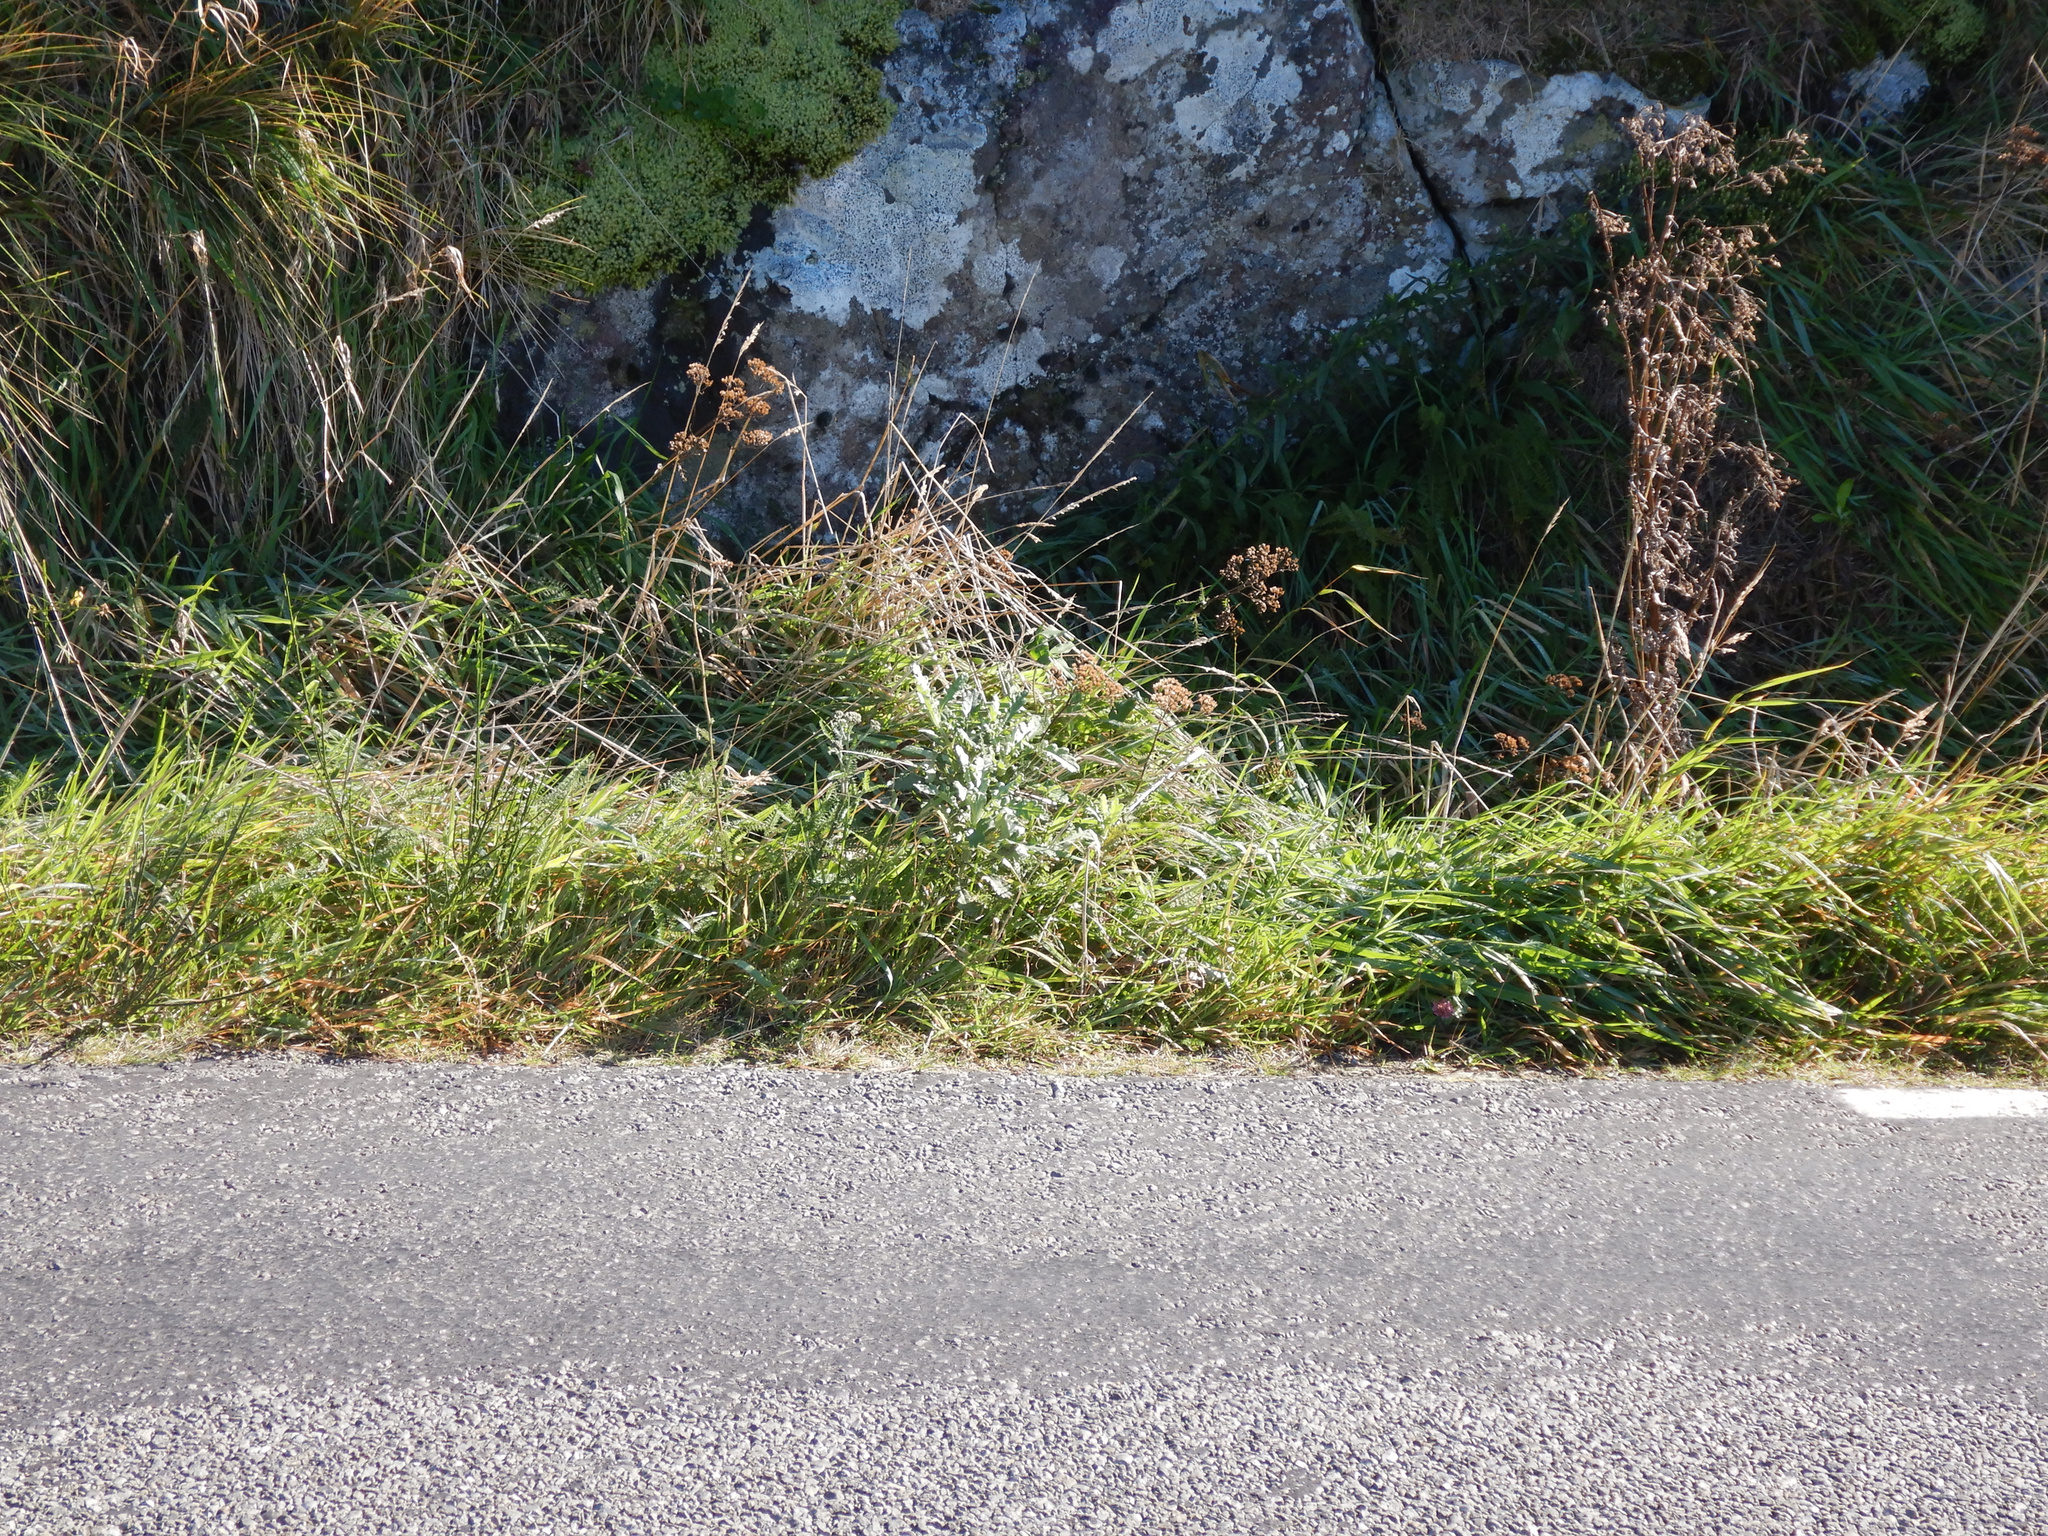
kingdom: Plantae
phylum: Tracheophyta
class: Magnoliopsida
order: Asterales
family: Asteraceae
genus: Senecio
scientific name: Senecio glomeratus
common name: Cutleaf burnweed
